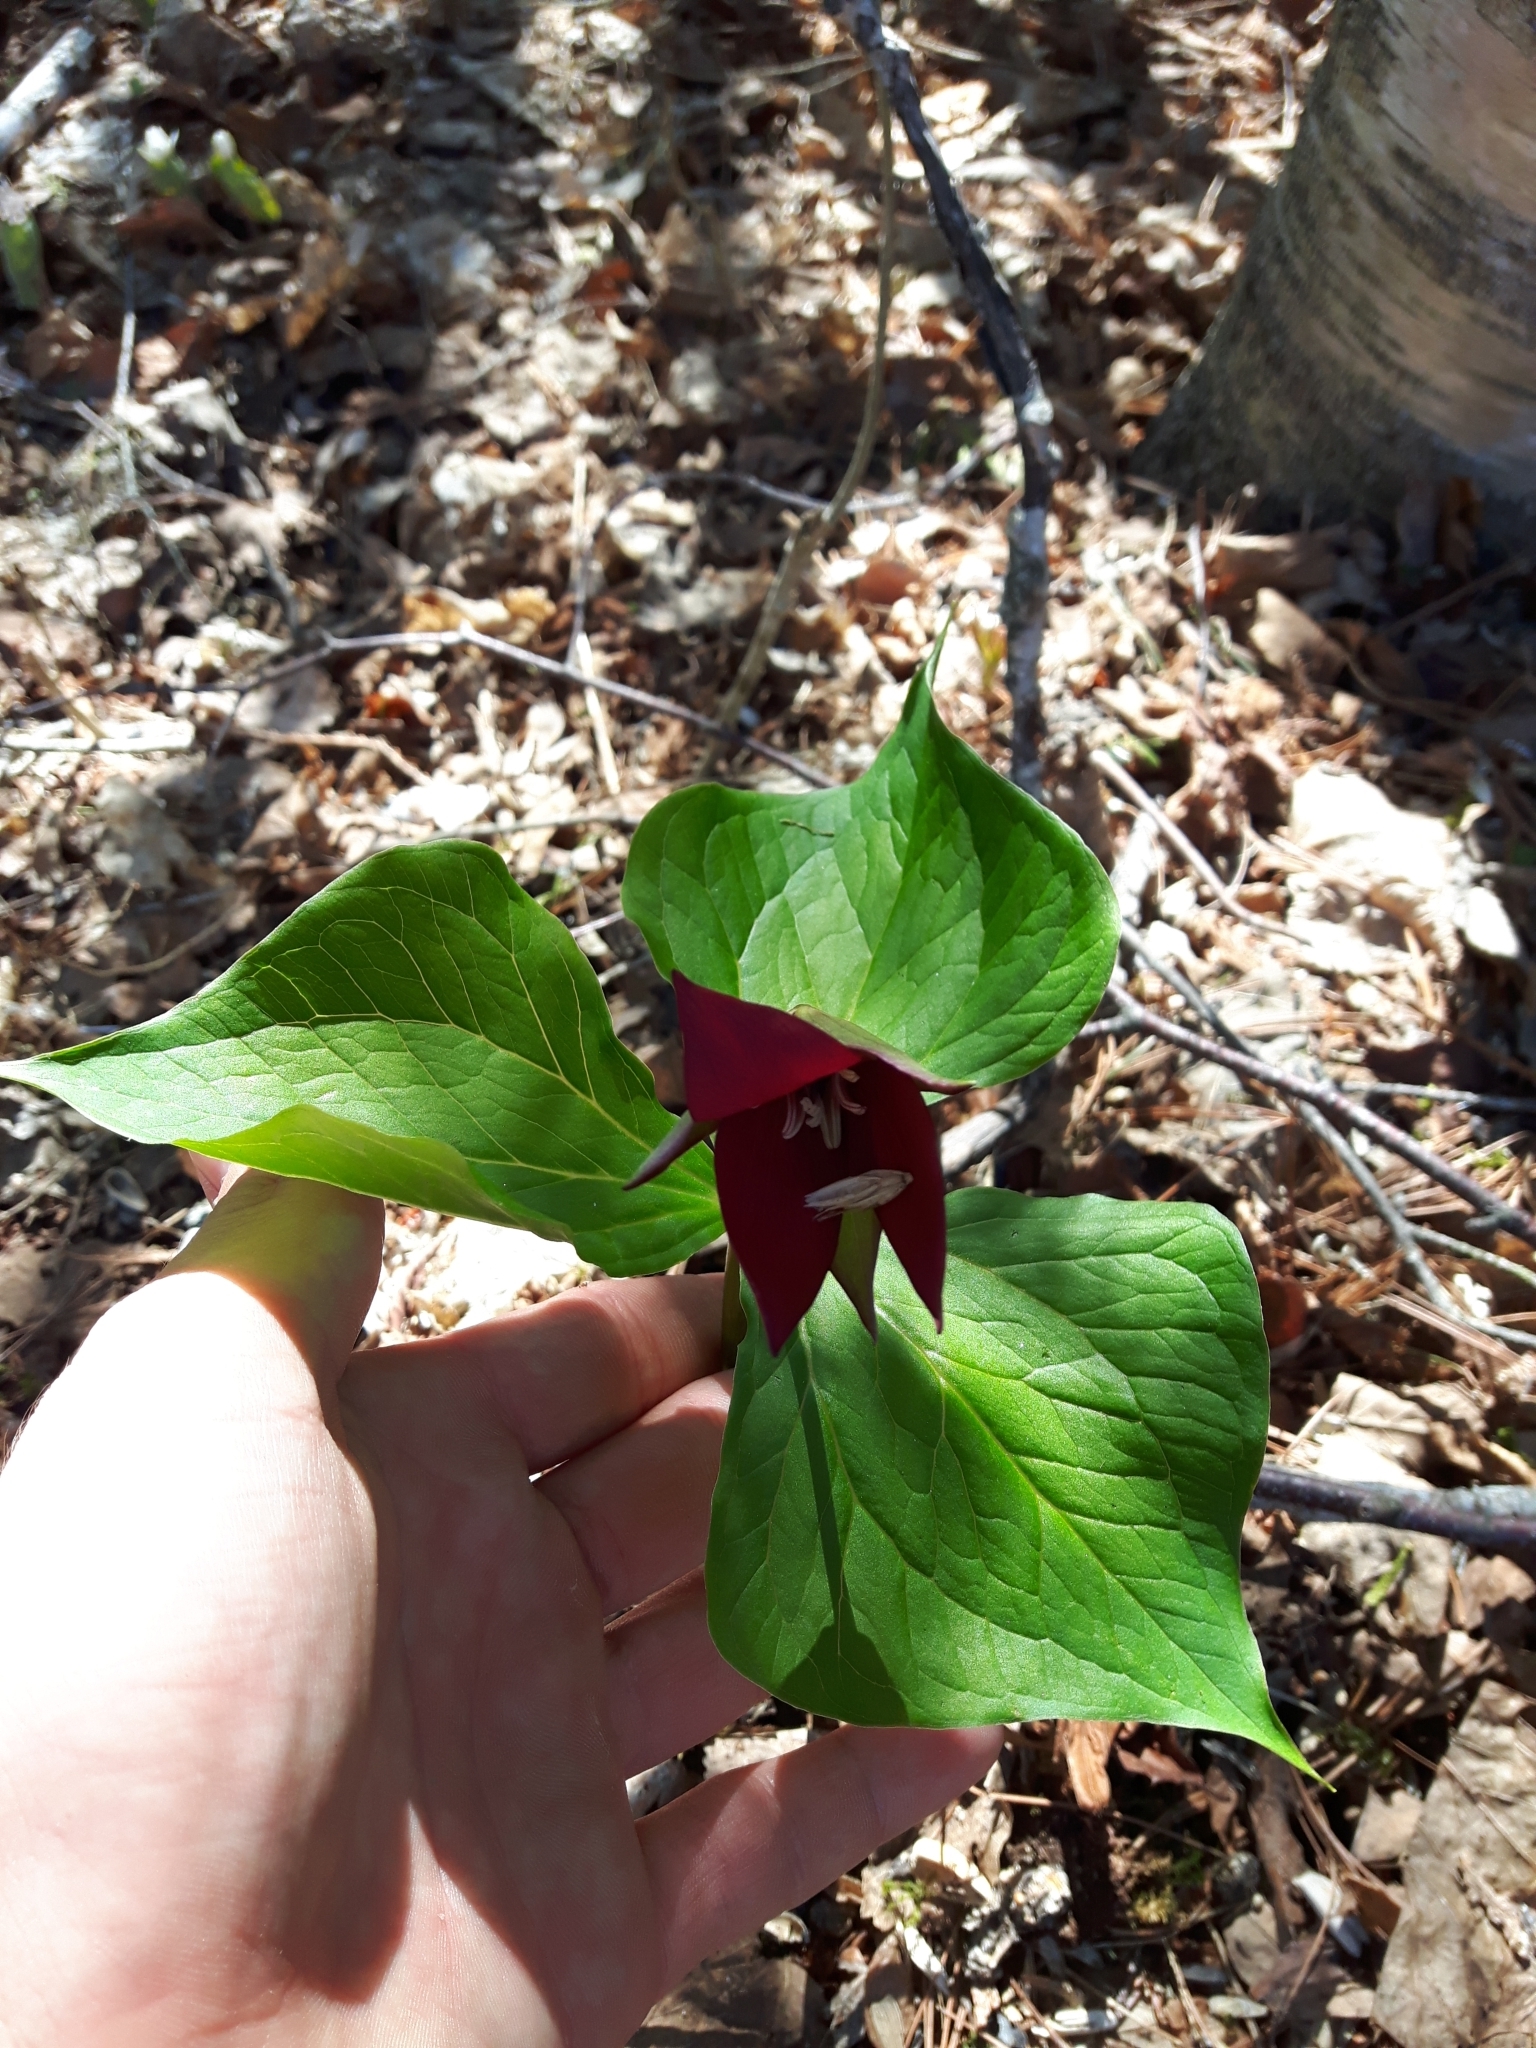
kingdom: Plantae
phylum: Tracheophyta
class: Liliopsida
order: Liliales
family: Melanthiaceae
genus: Trillium
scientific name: Trillium erectum
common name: Purple trillium
